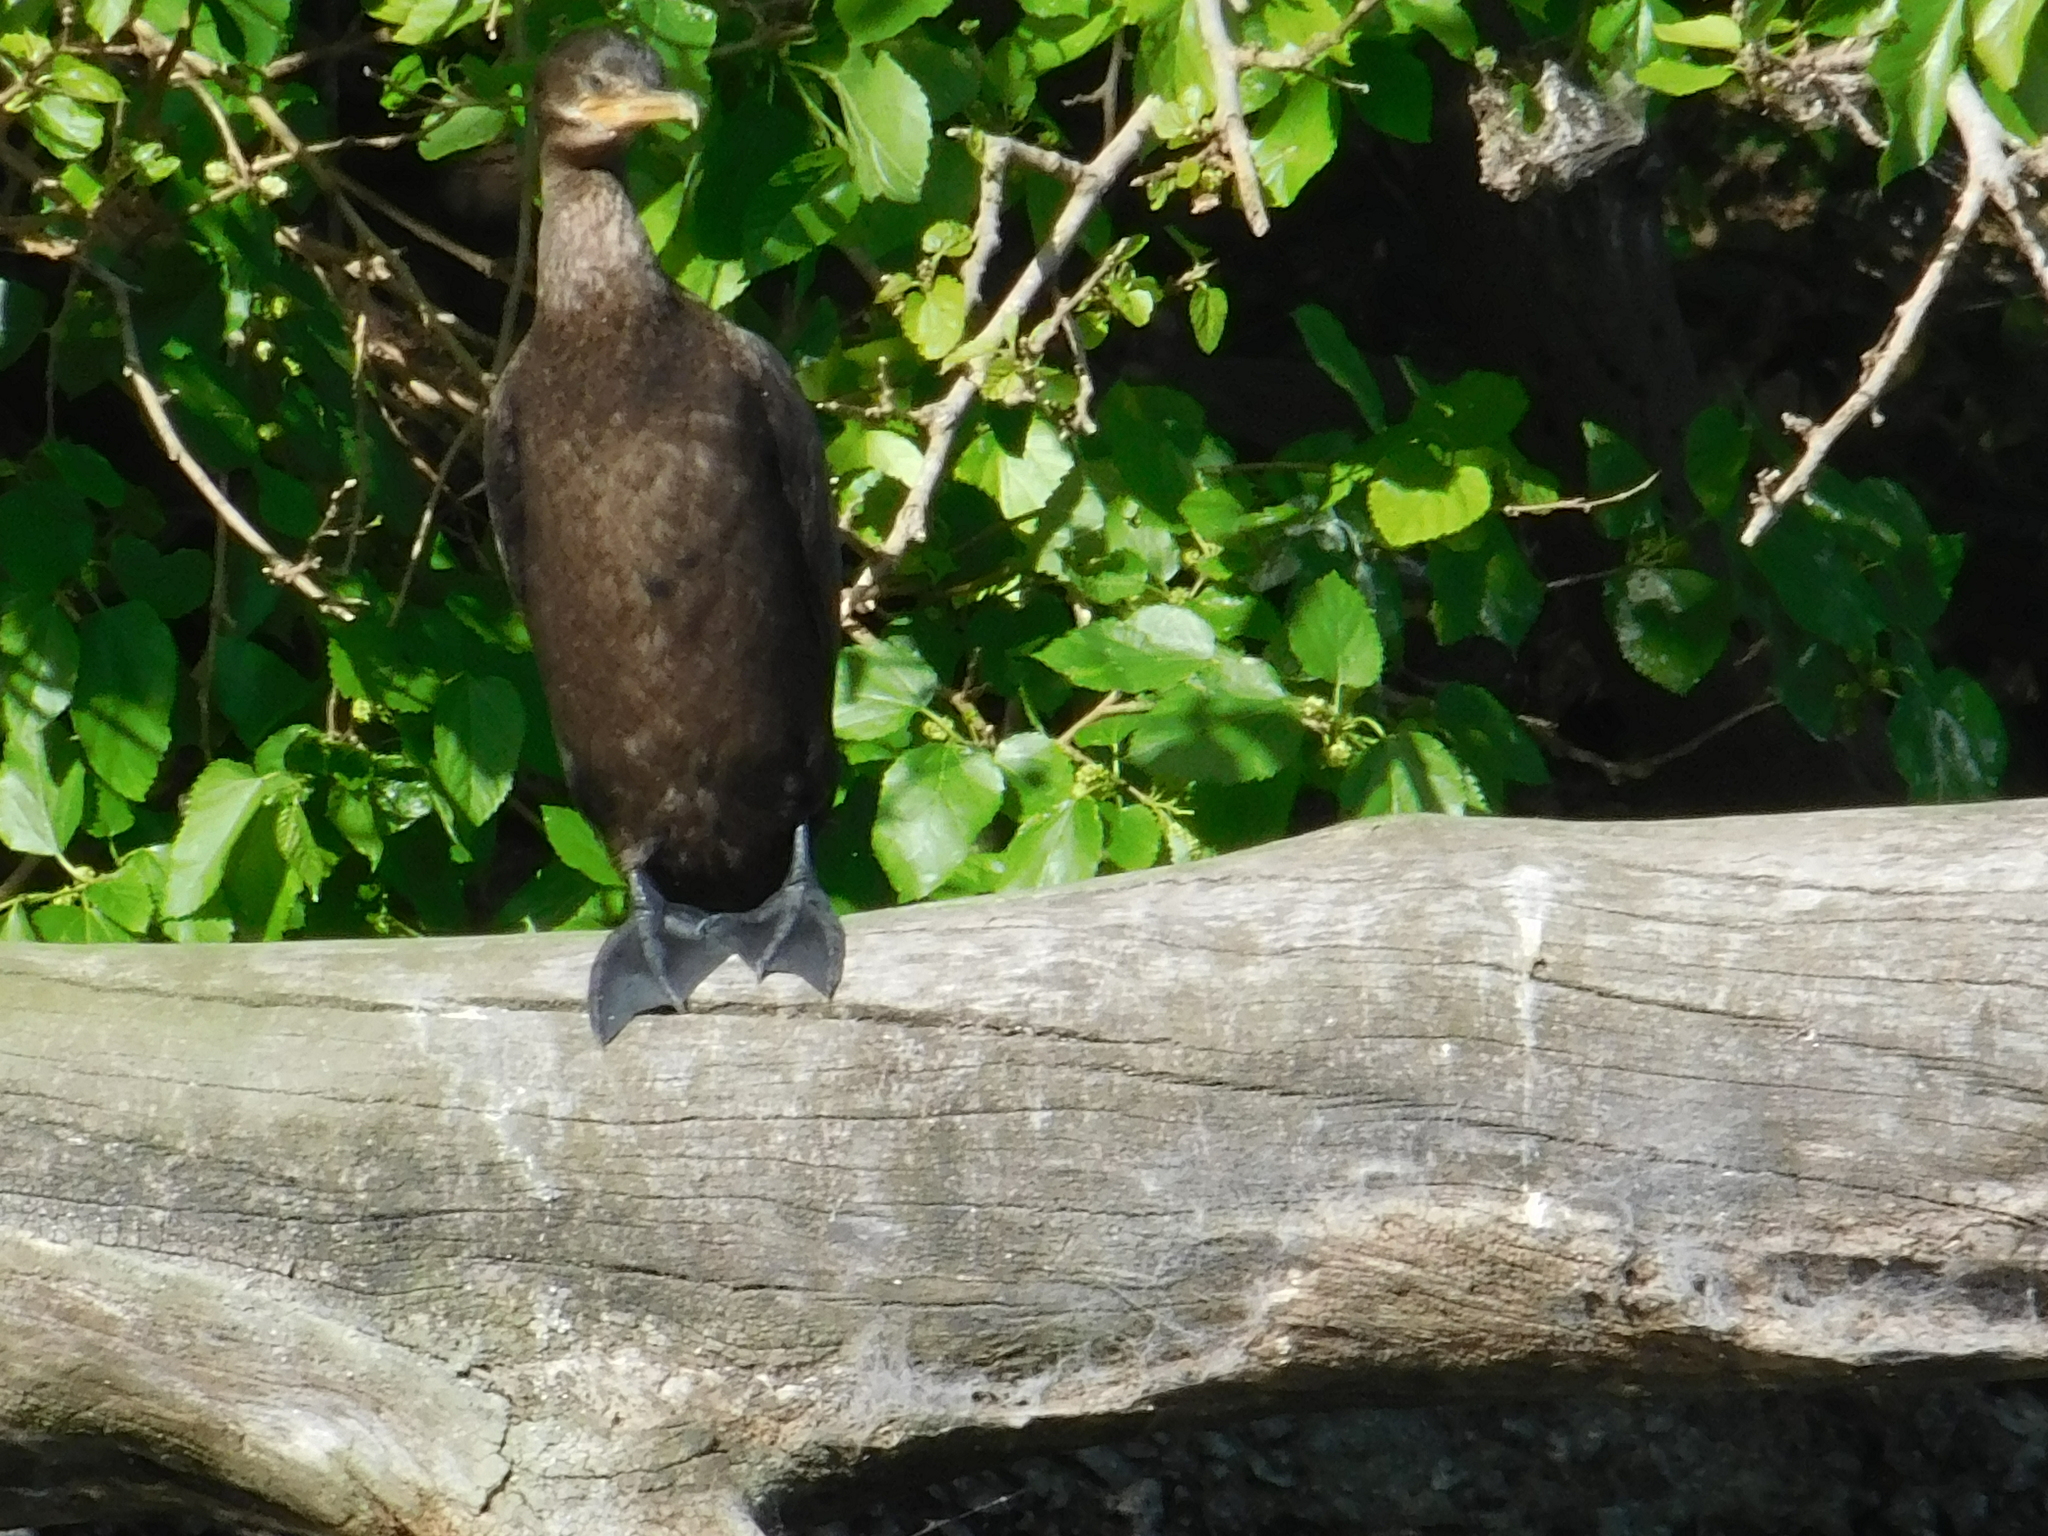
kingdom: Animalia
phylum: Chordata
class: Aves
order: Suliformes
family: Phalacrocoracidae
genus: Phalacrocorax
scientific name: Phalacrocorax brasilianus
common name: Neotropic cormorant
